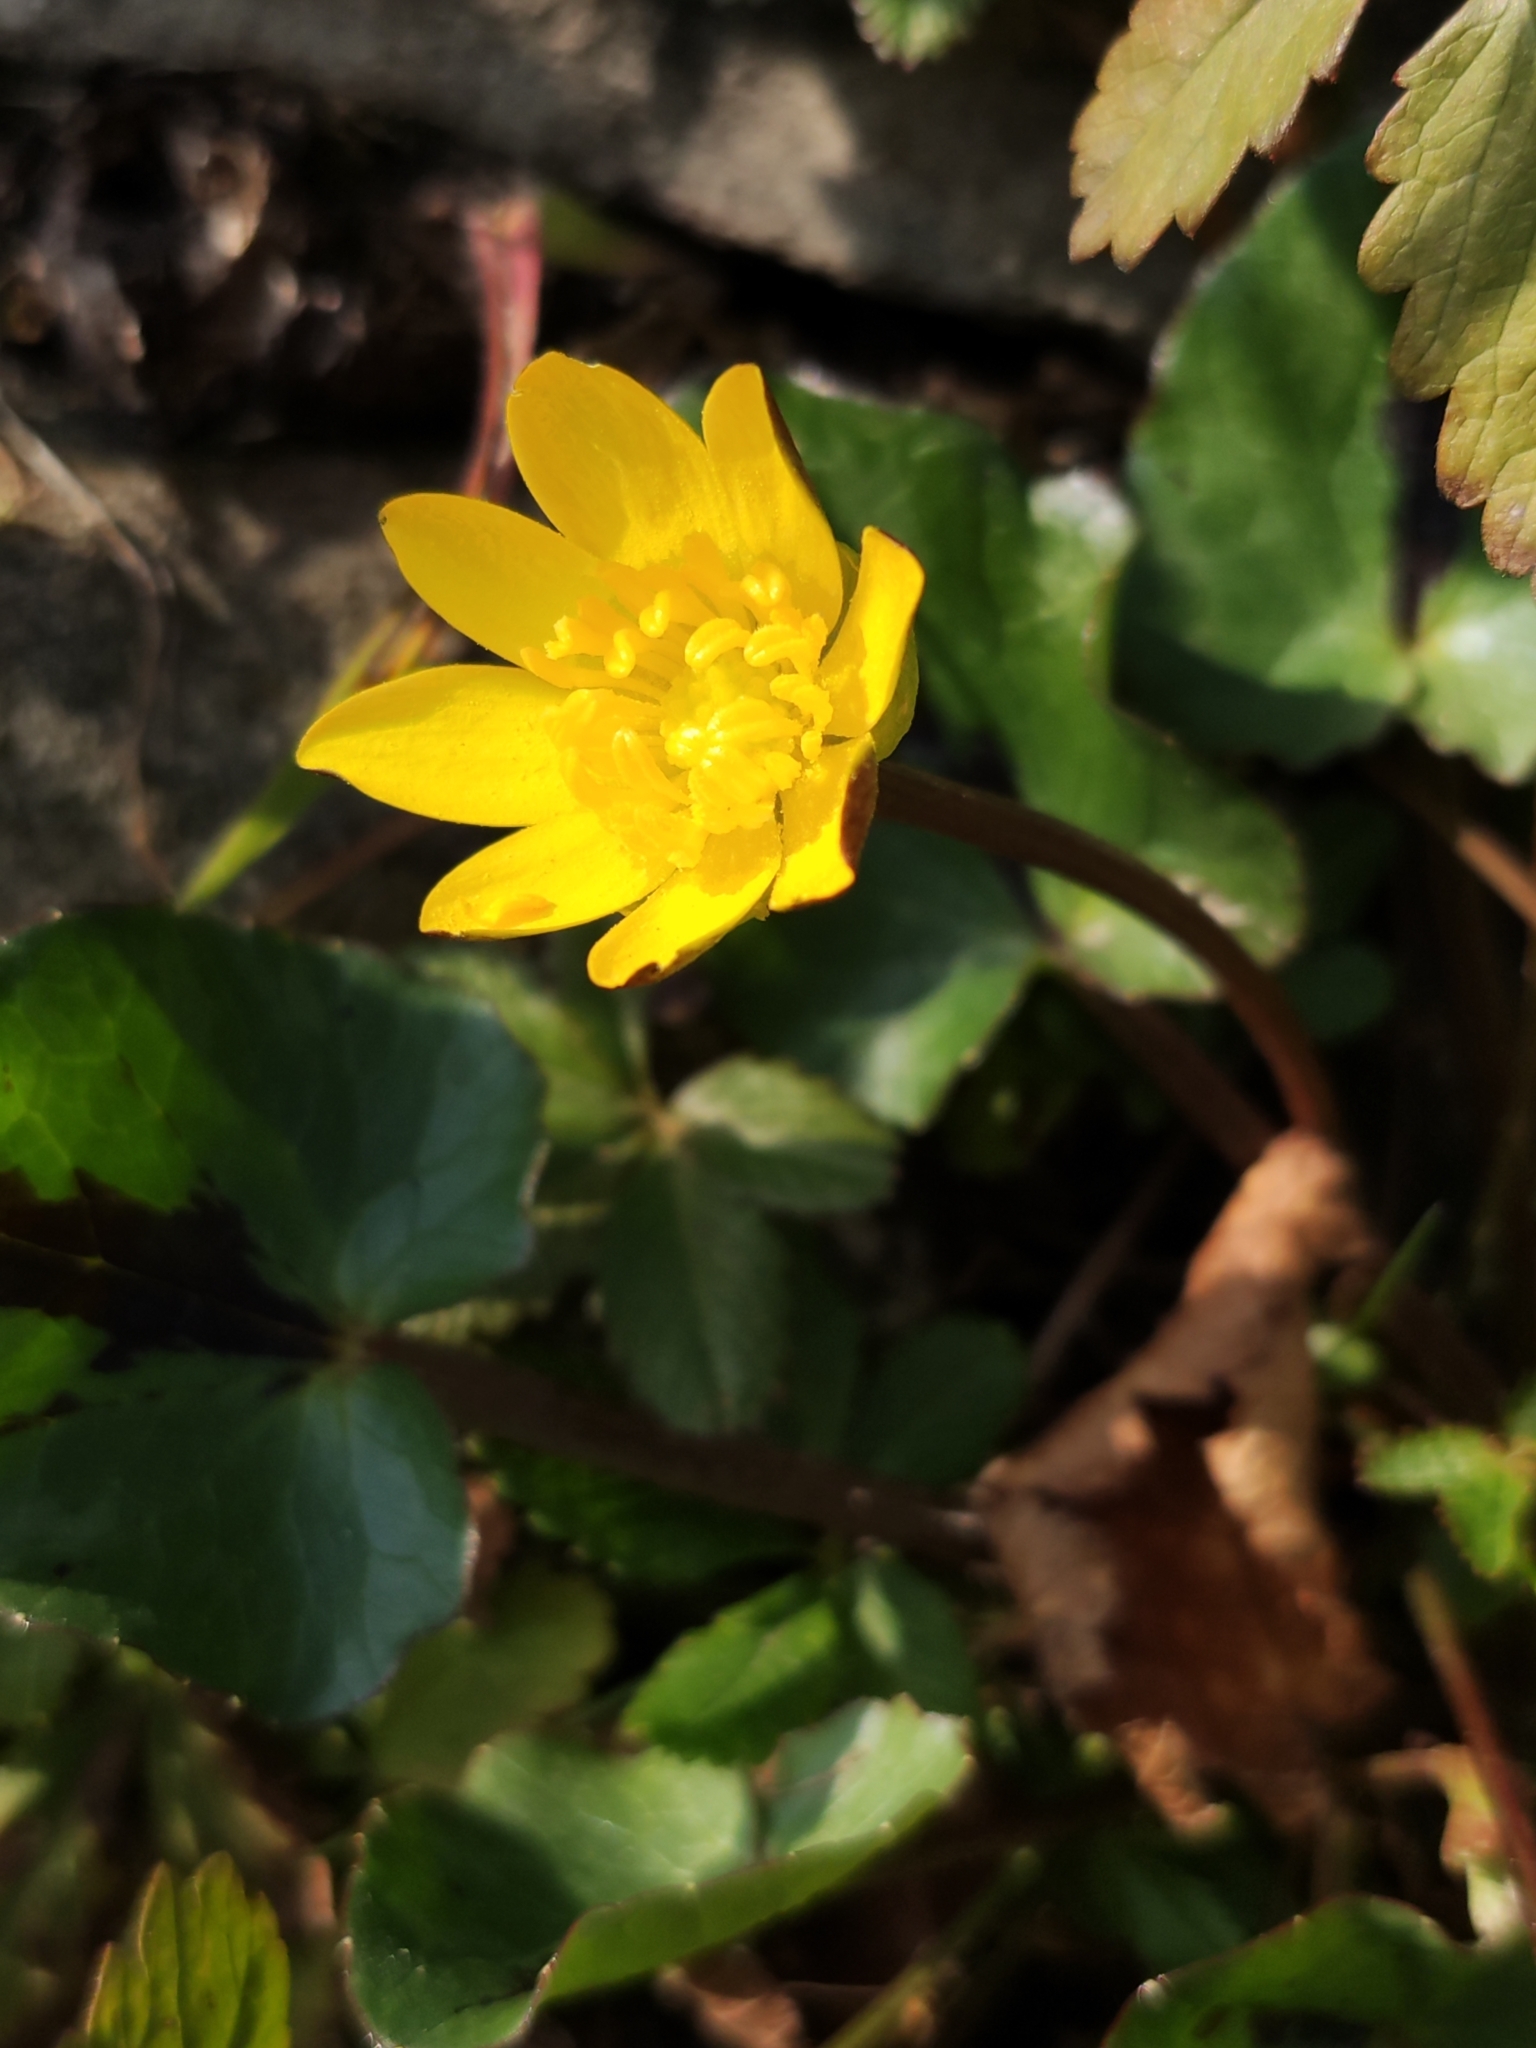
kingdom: Plantae
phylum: Tracheophyta
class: Magnoliopsida
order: Ranunculales
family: Ranunculaceae
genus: Ficaria
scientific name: Ficaria verna
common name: Lesser celandine
